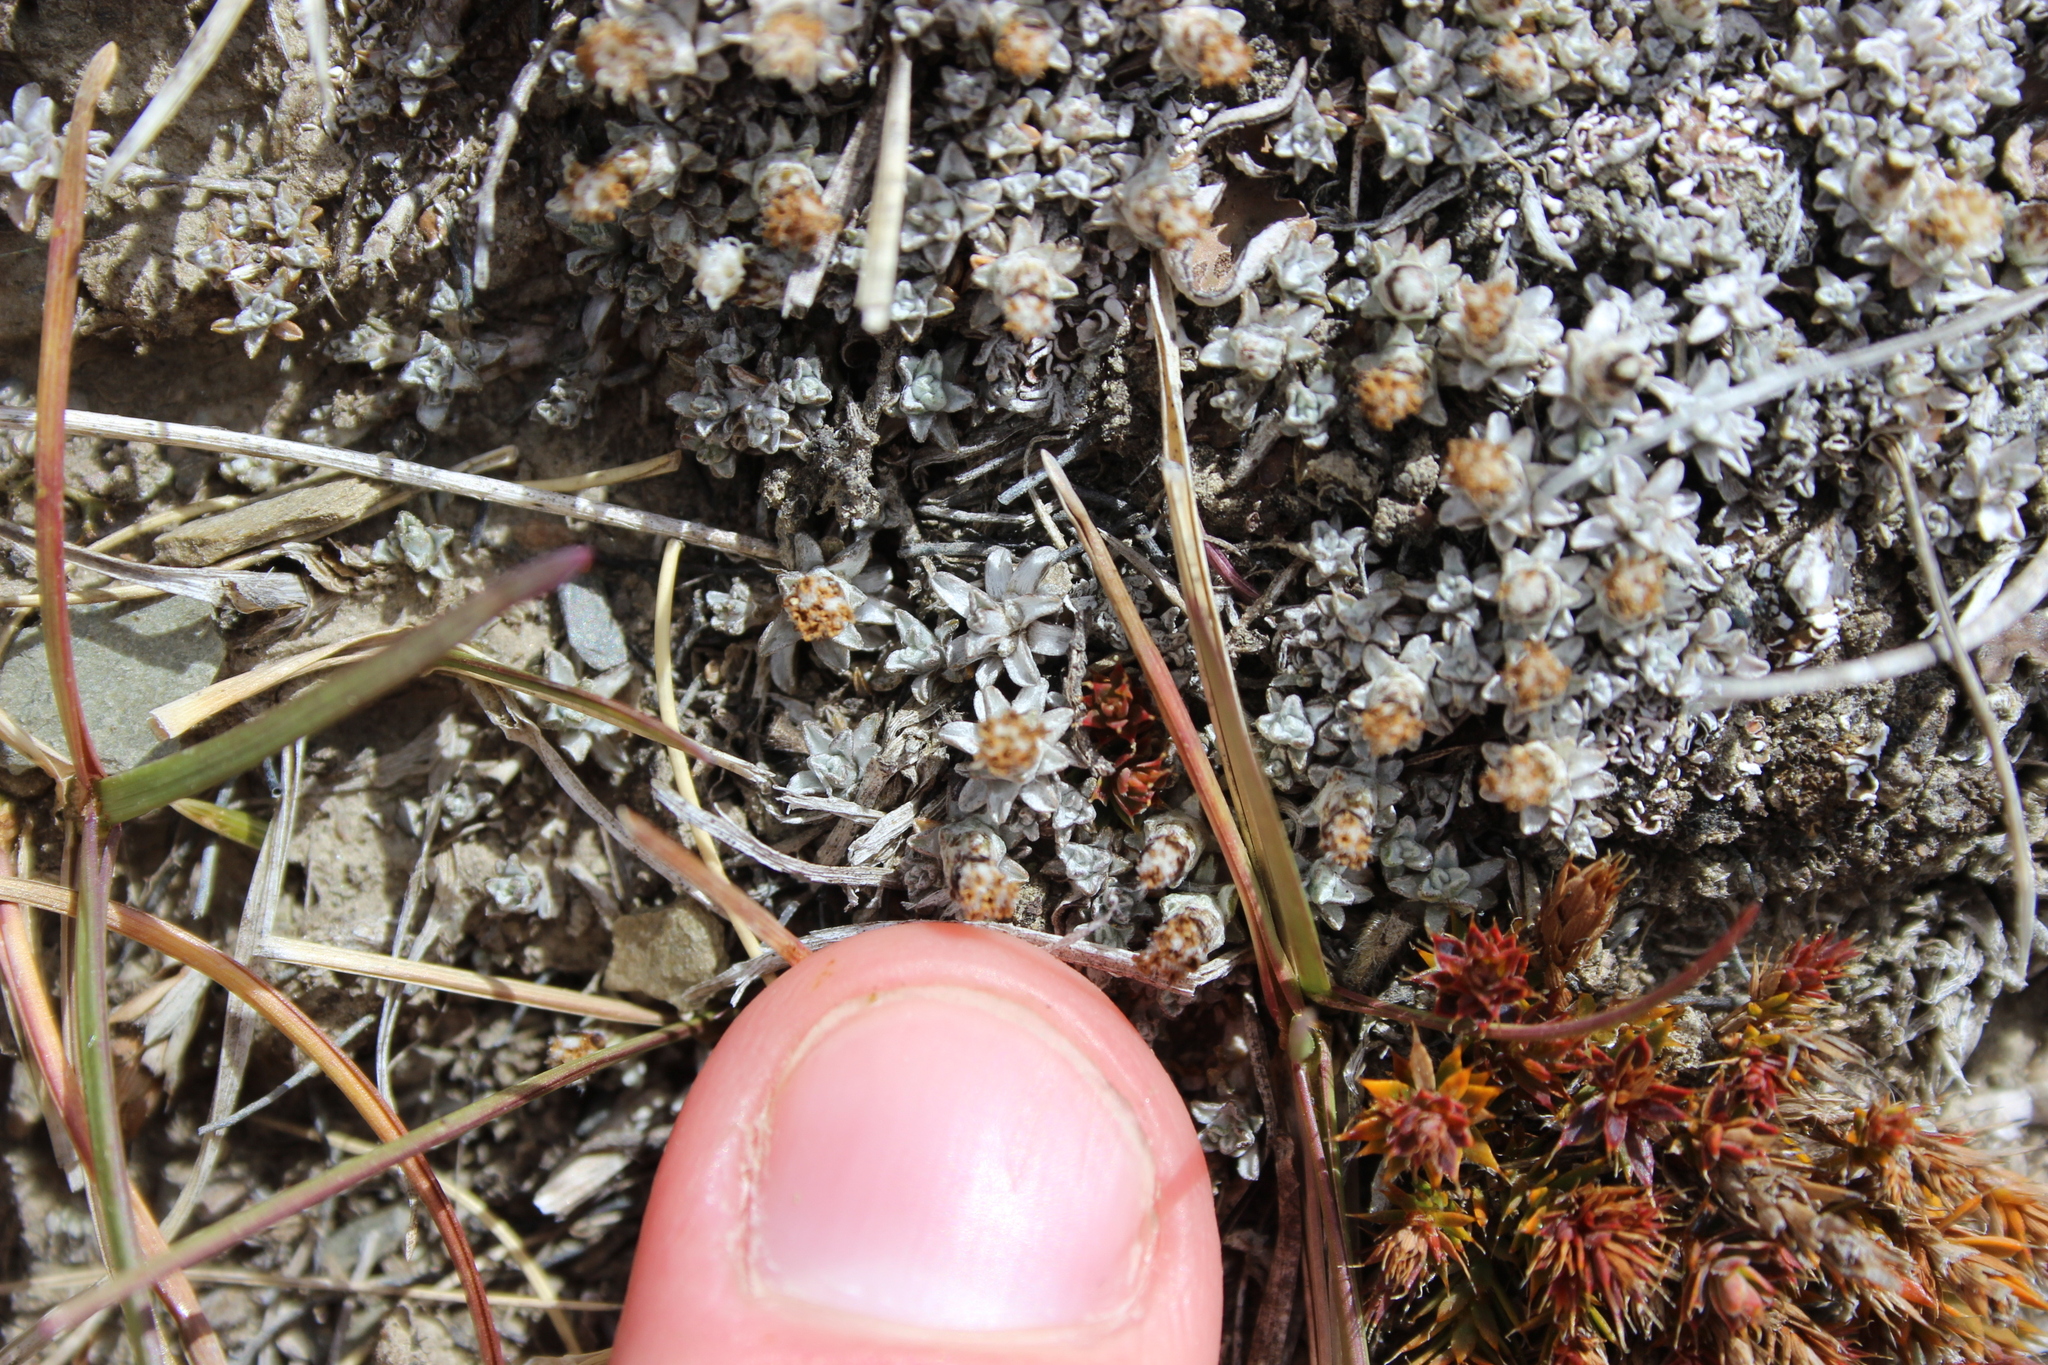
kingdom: Plantae
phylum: Tracheophyta
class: Magnoliopsida
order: Asterales
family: Asteraceae
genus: Raoulia
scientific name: Raoulia beauverdii
